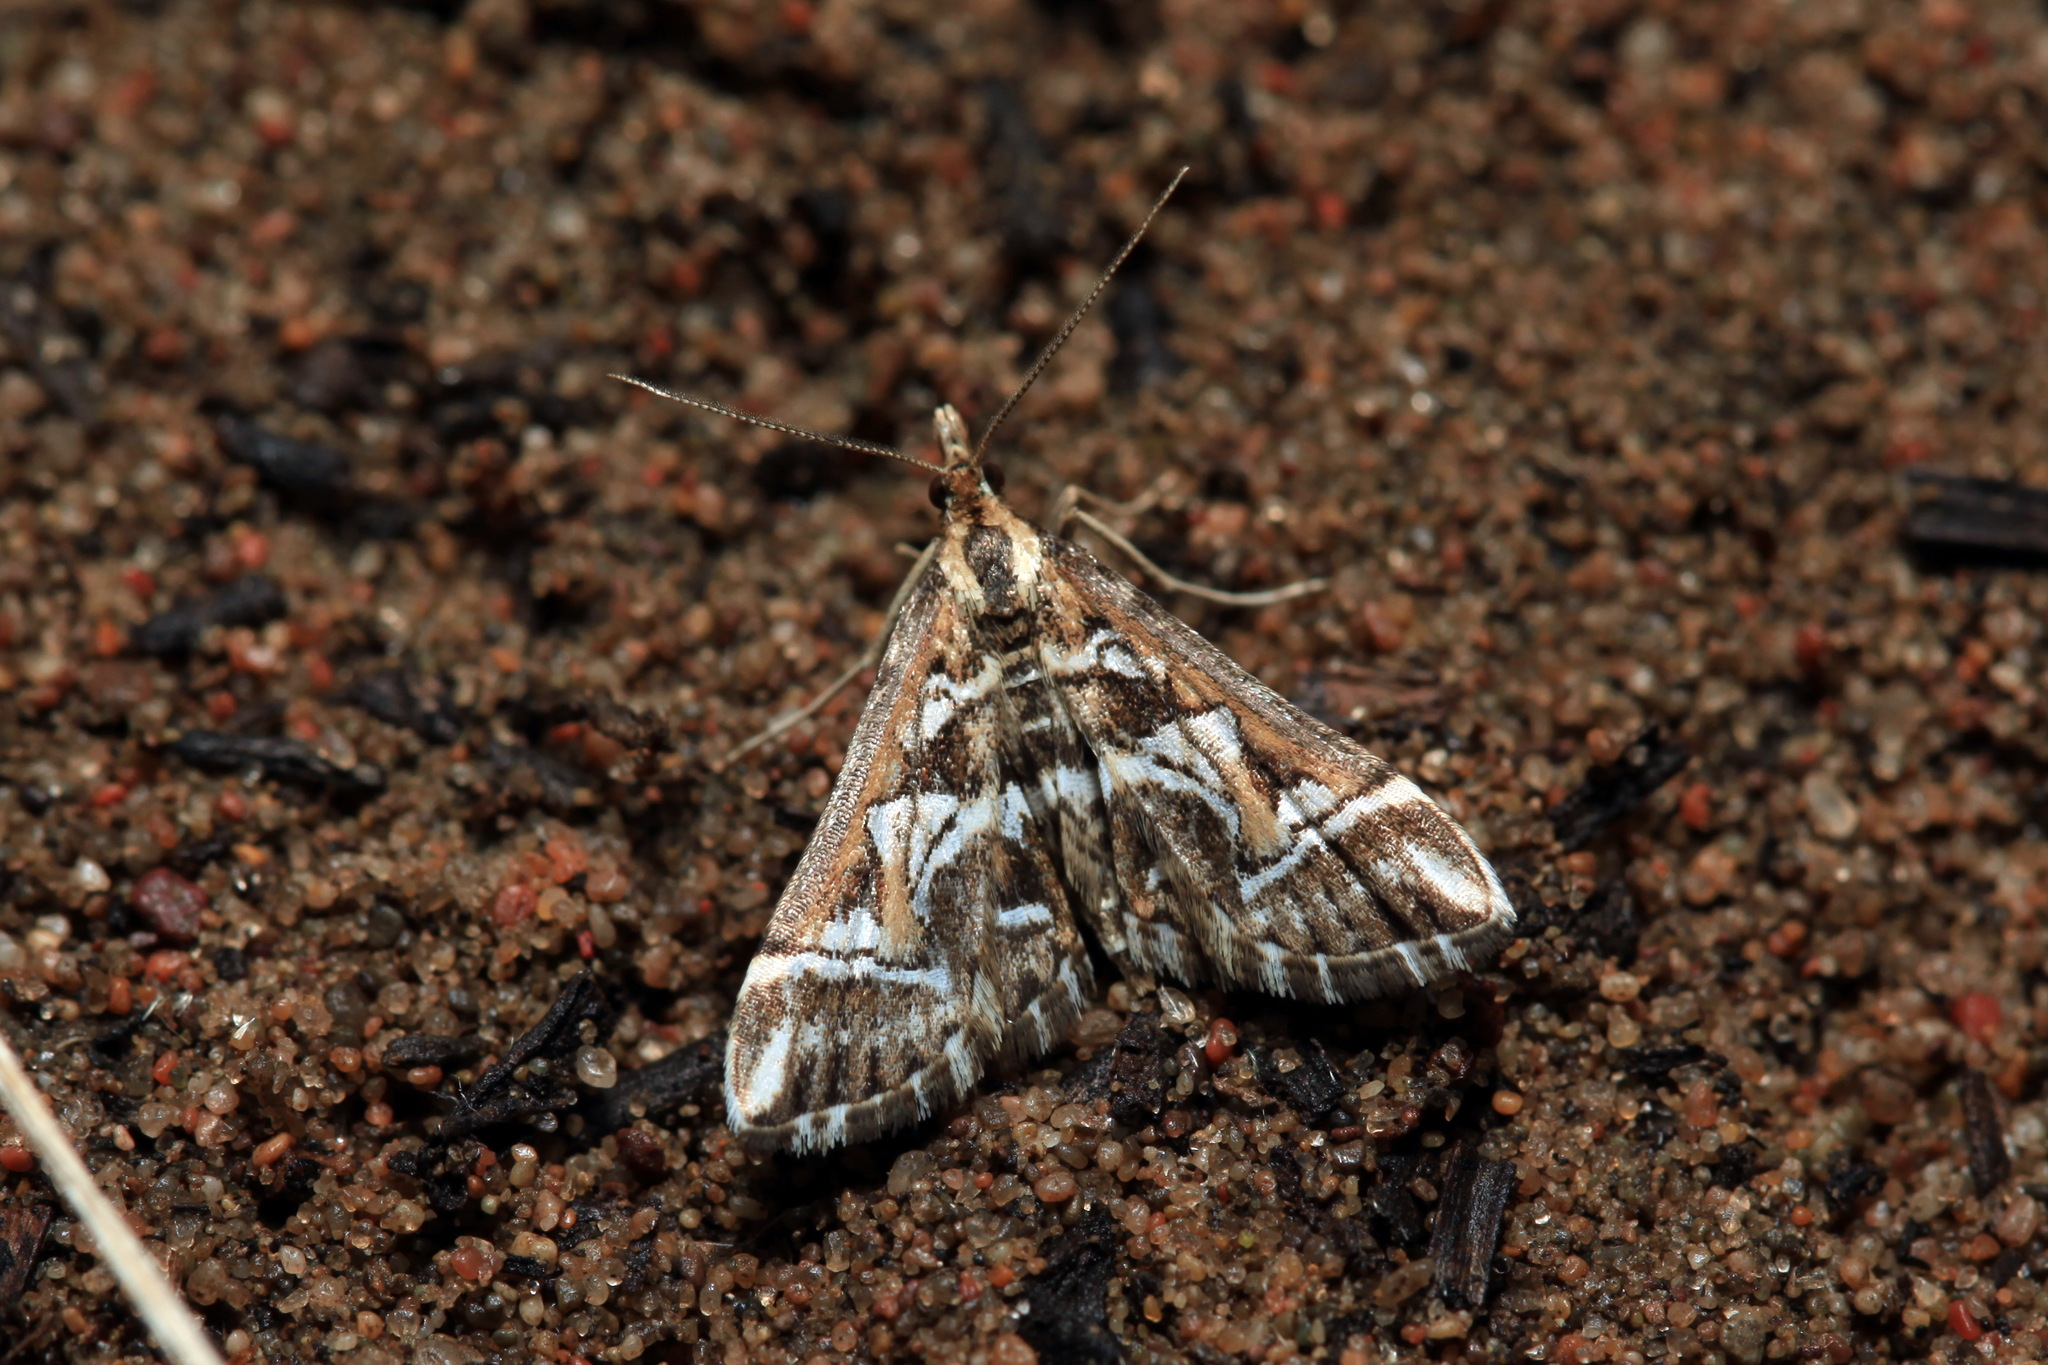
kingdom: Animalia
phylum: Arthropoda
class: Insecta
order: Lepidoptera
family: Crambidae
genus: Diasemia
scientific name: Diasemia reticularis
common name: Lettered china-mark
